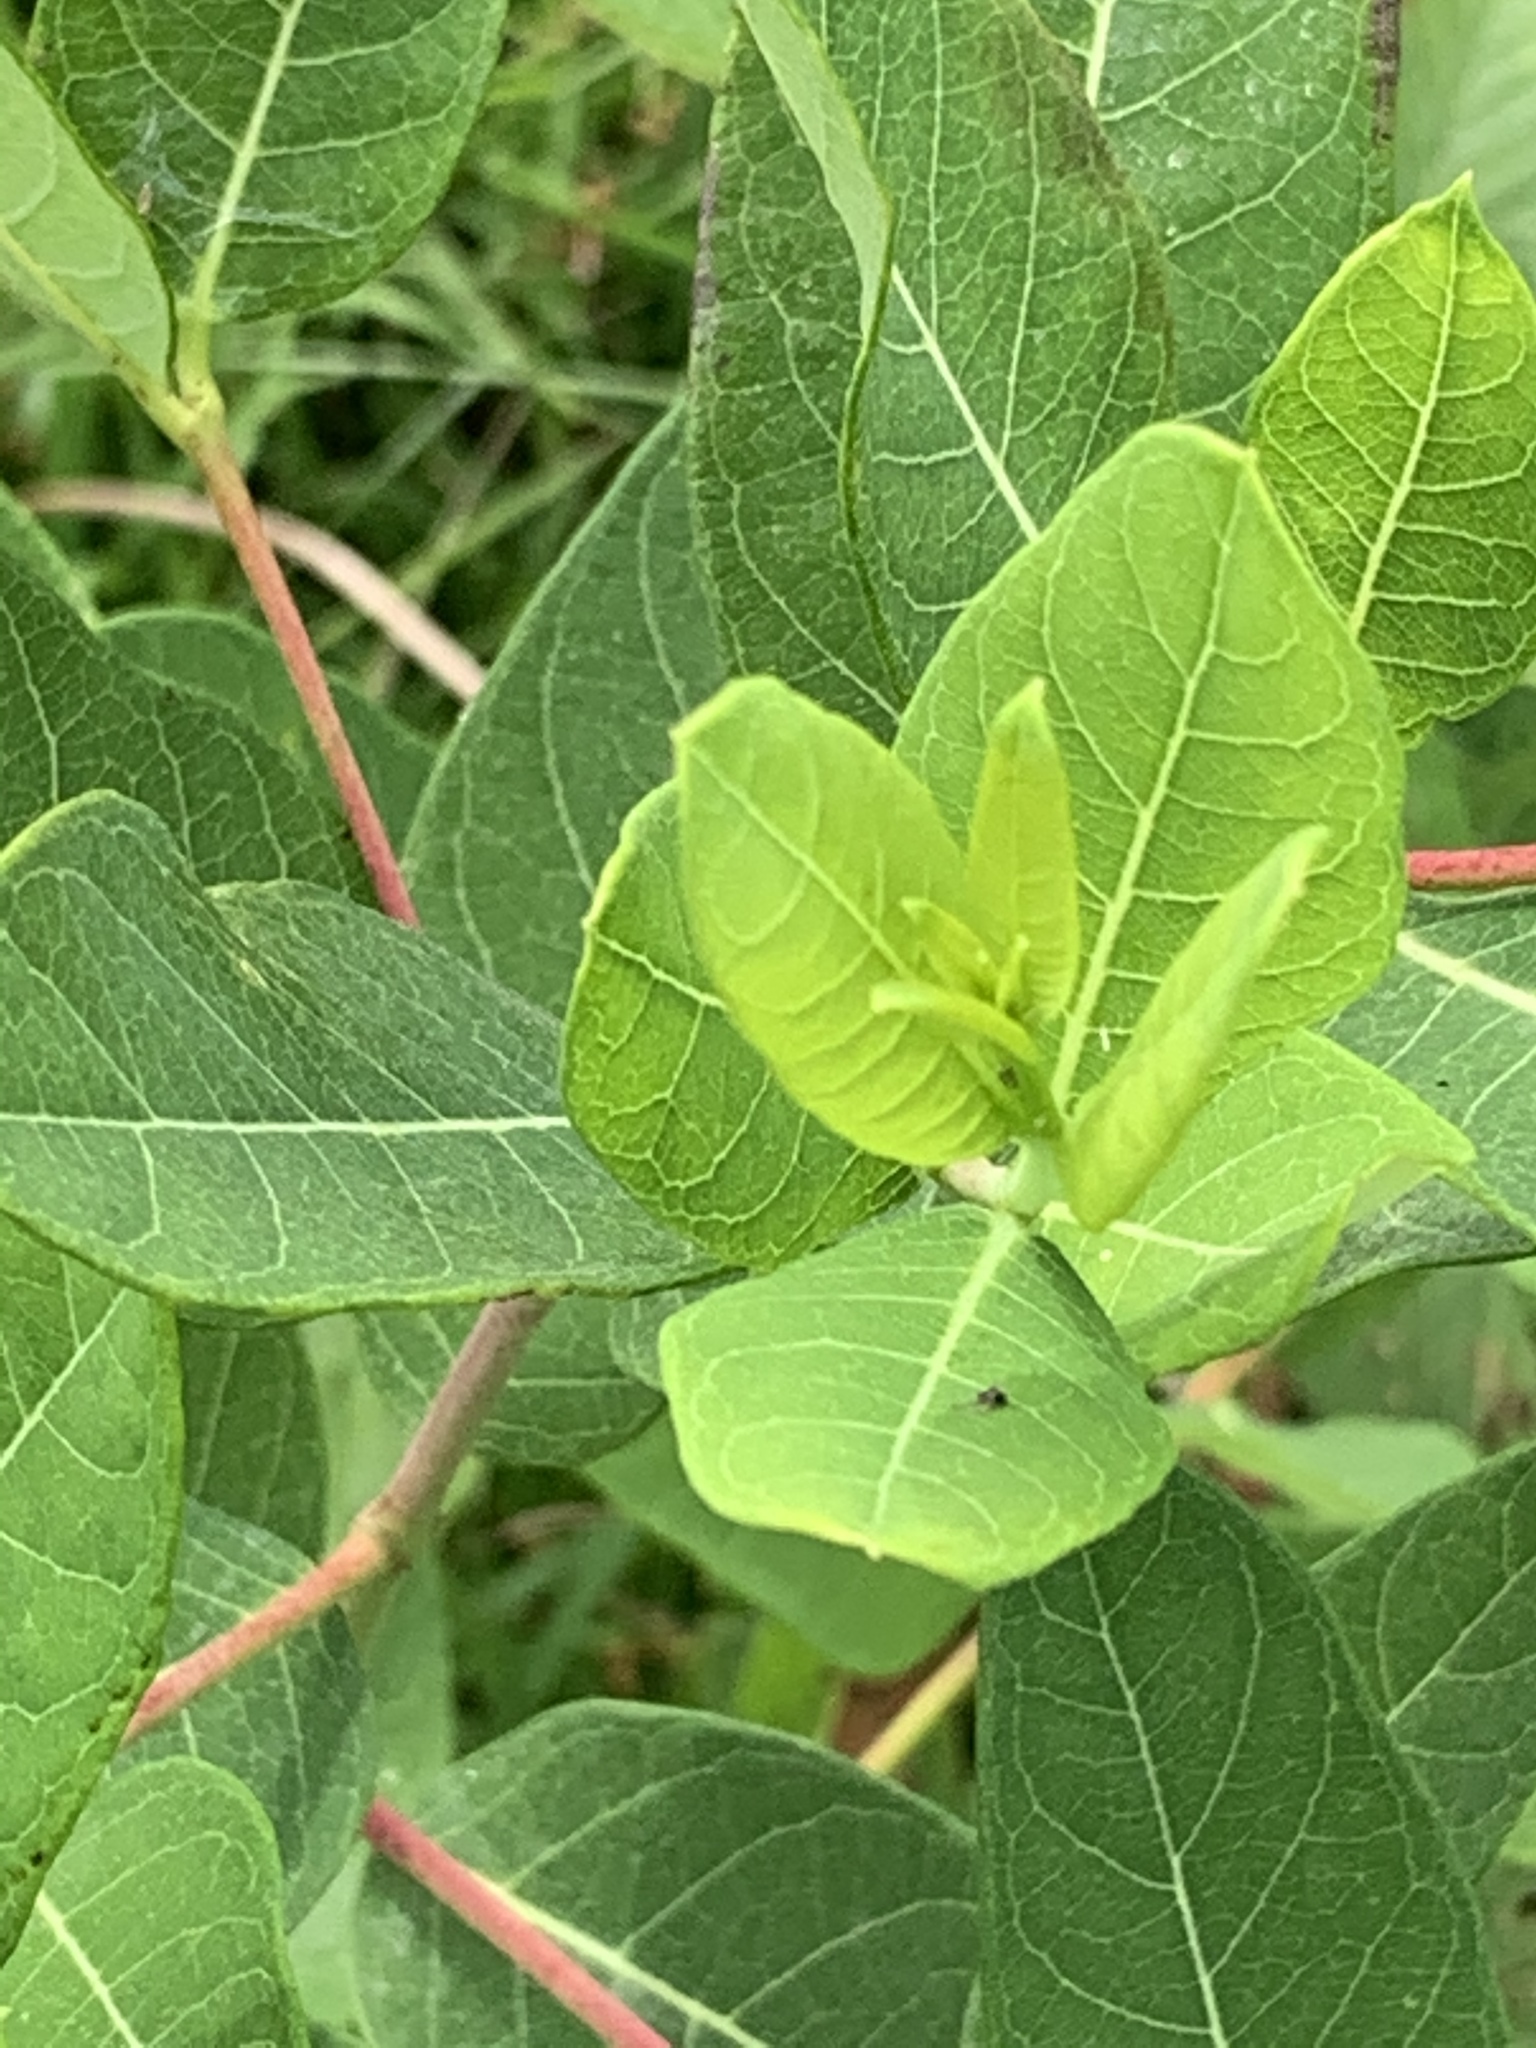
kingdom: Plantae
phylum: Tracheophyta
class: Magnoliopsida
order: Gentianales
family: Apocynaceae
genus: Apocynum
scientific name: Apocynum cannabinum
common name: Hemp dogbane
